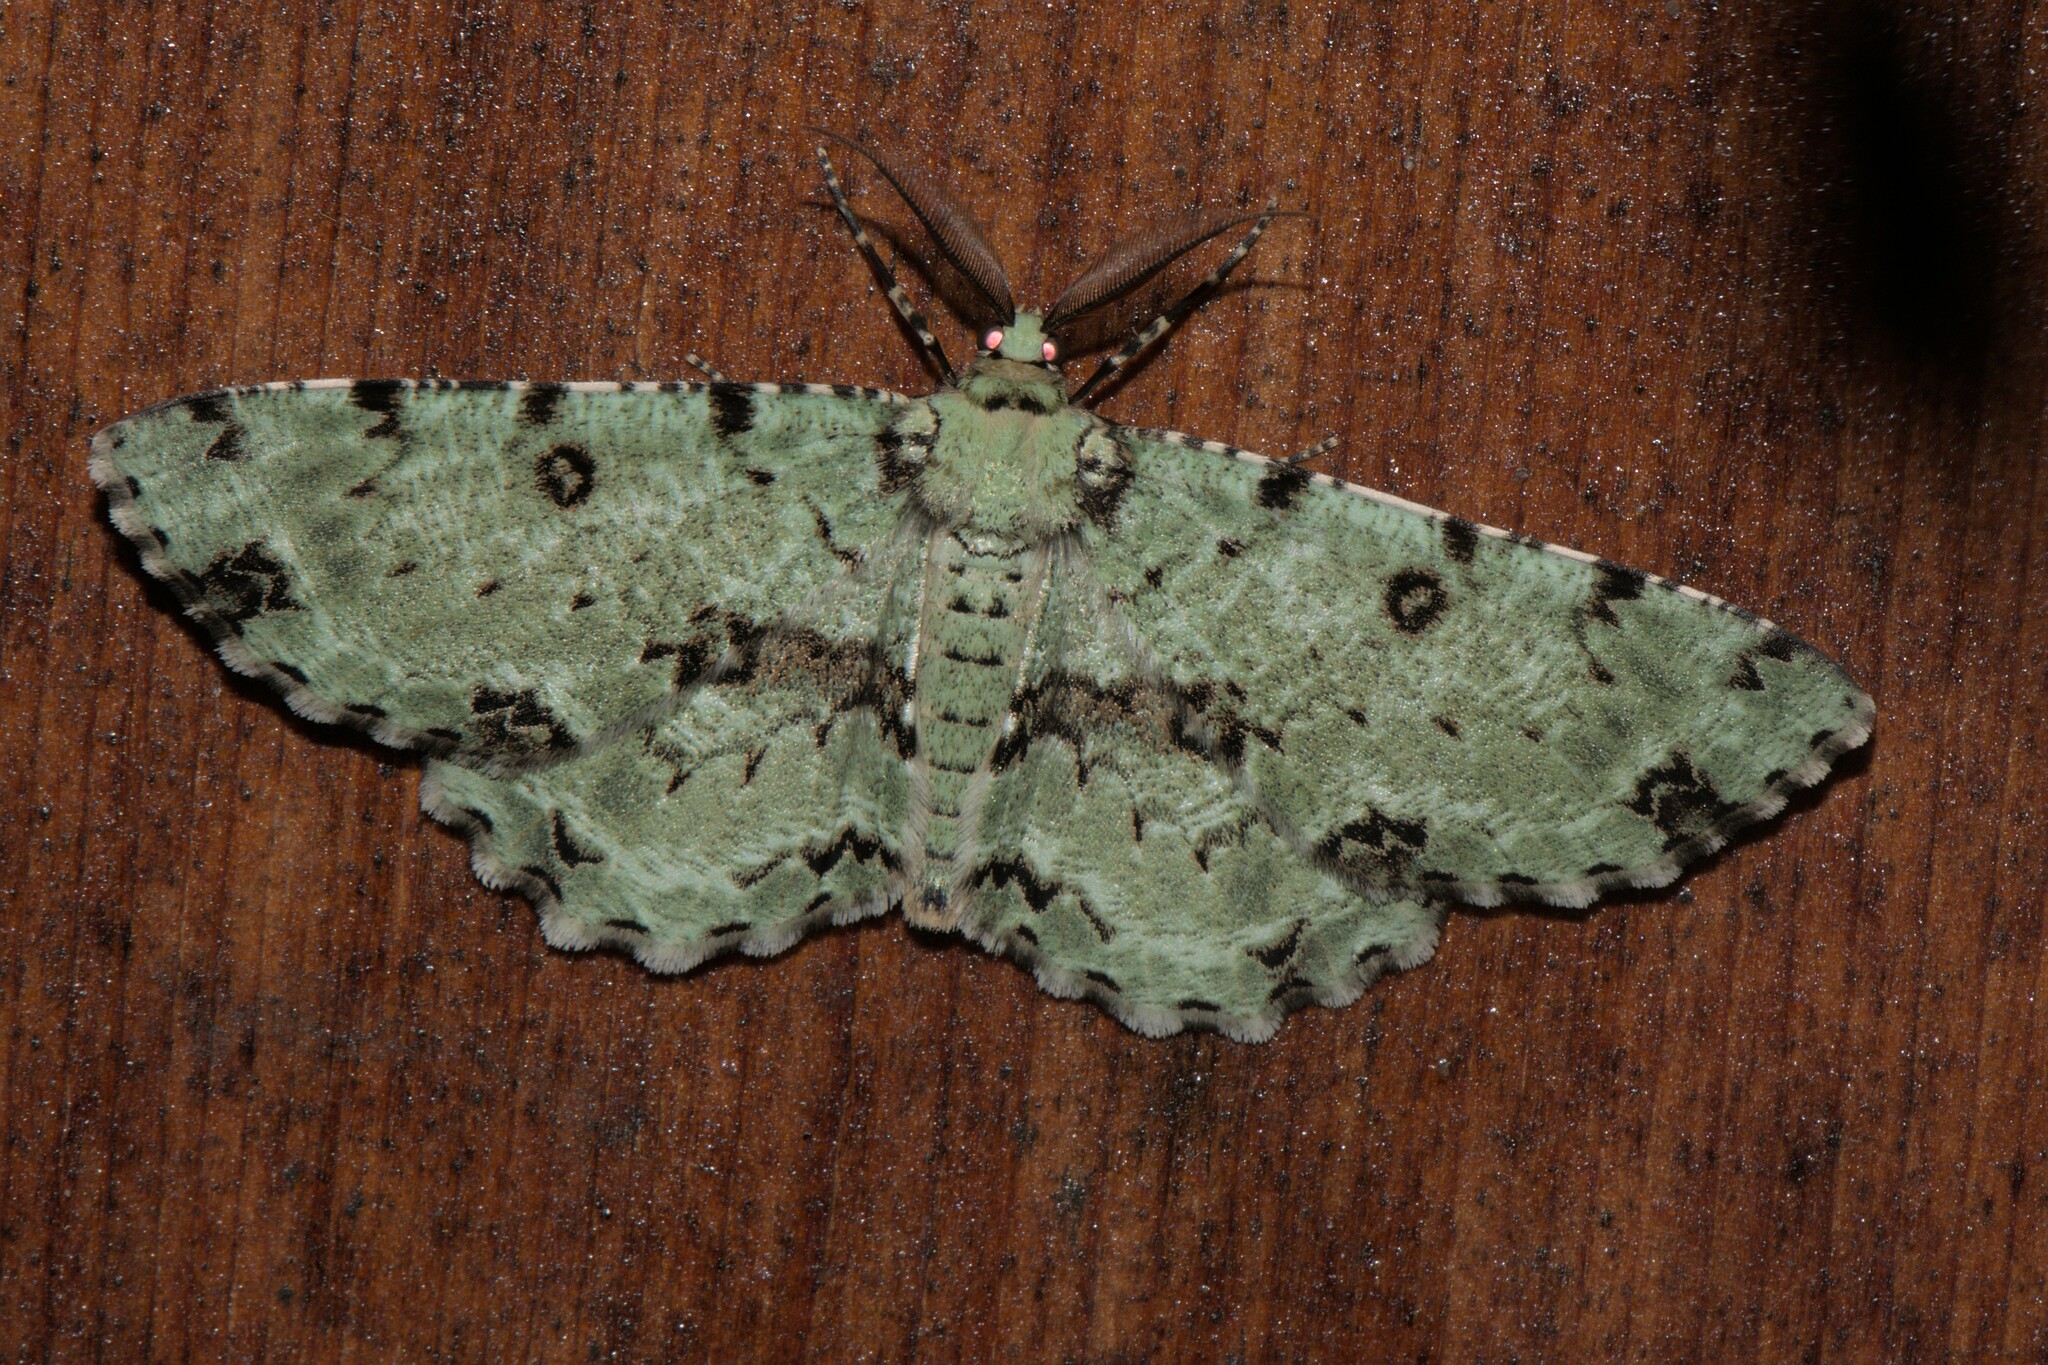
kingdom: Animalia
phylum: Arthropoda
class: Insecta
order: Lepidoptera
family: Geometridae
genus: Ophthalmitis
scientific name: Ophthalmitis cordularia
